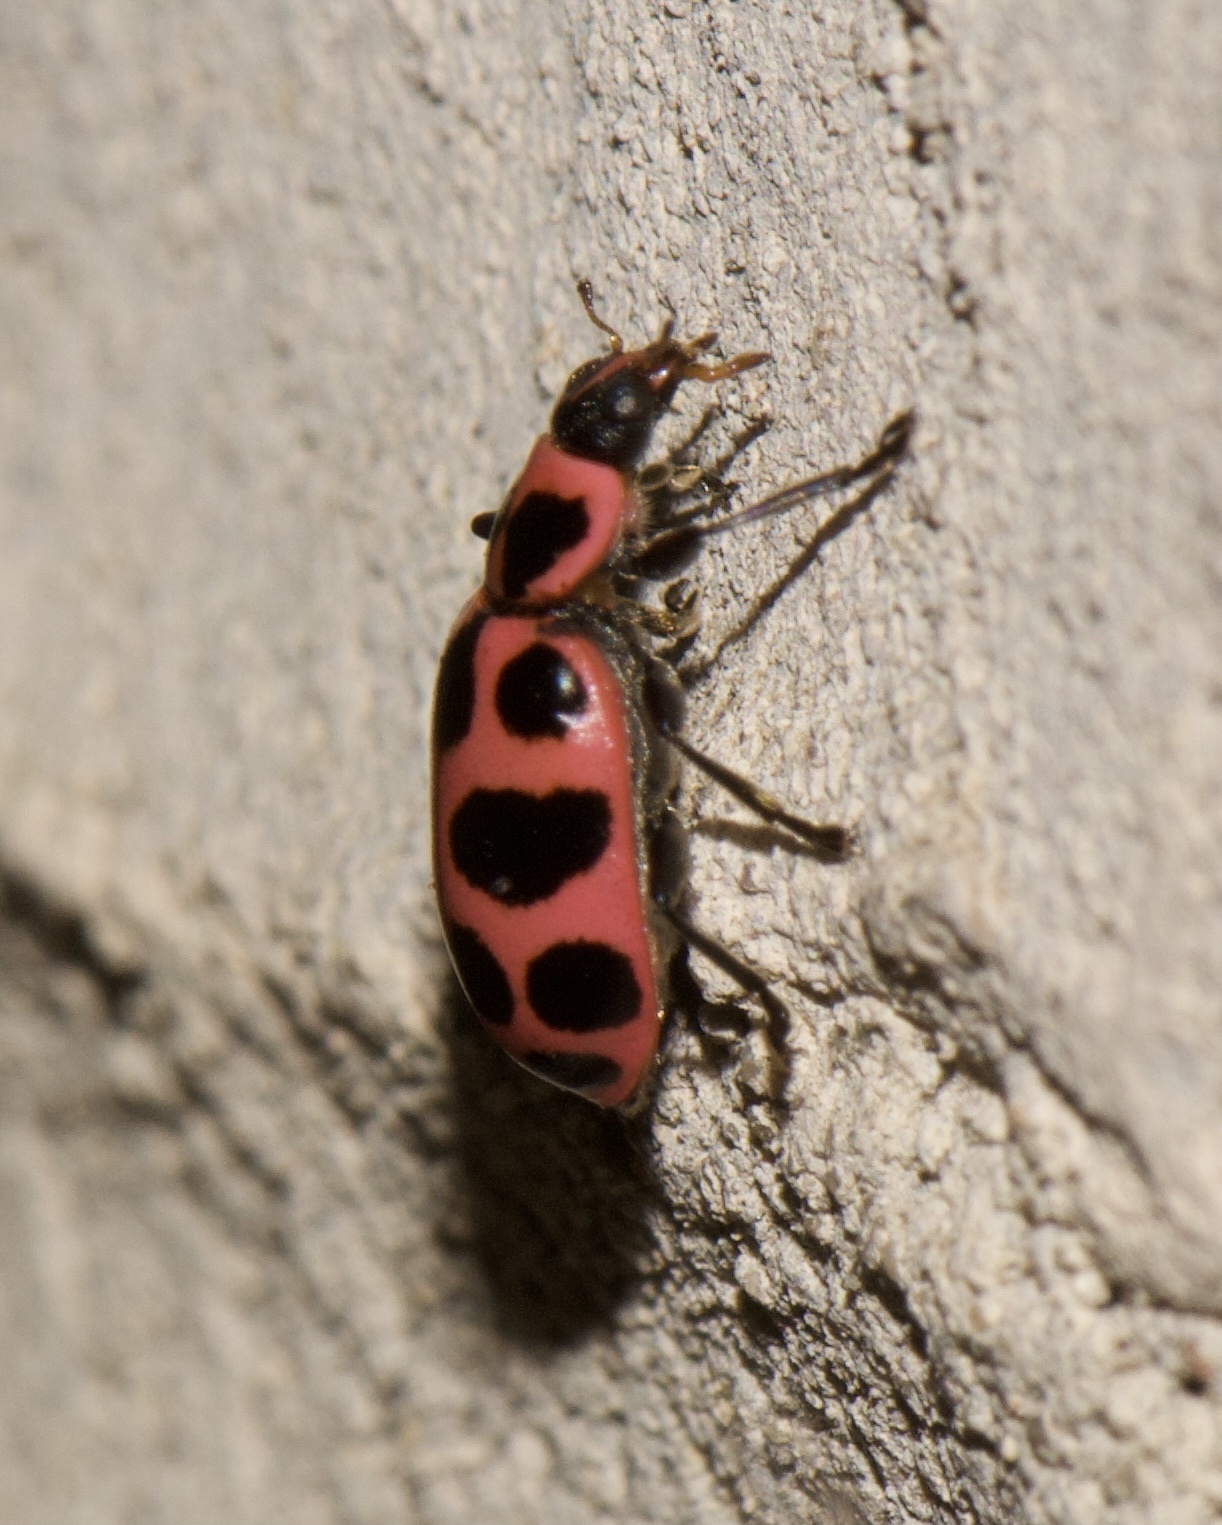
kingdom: Animalia
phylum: Arthropoda
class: Insecta
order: Coleoptera
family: Coccinellidae
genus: Coleomegilla
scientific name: Coleomegilla maculata
